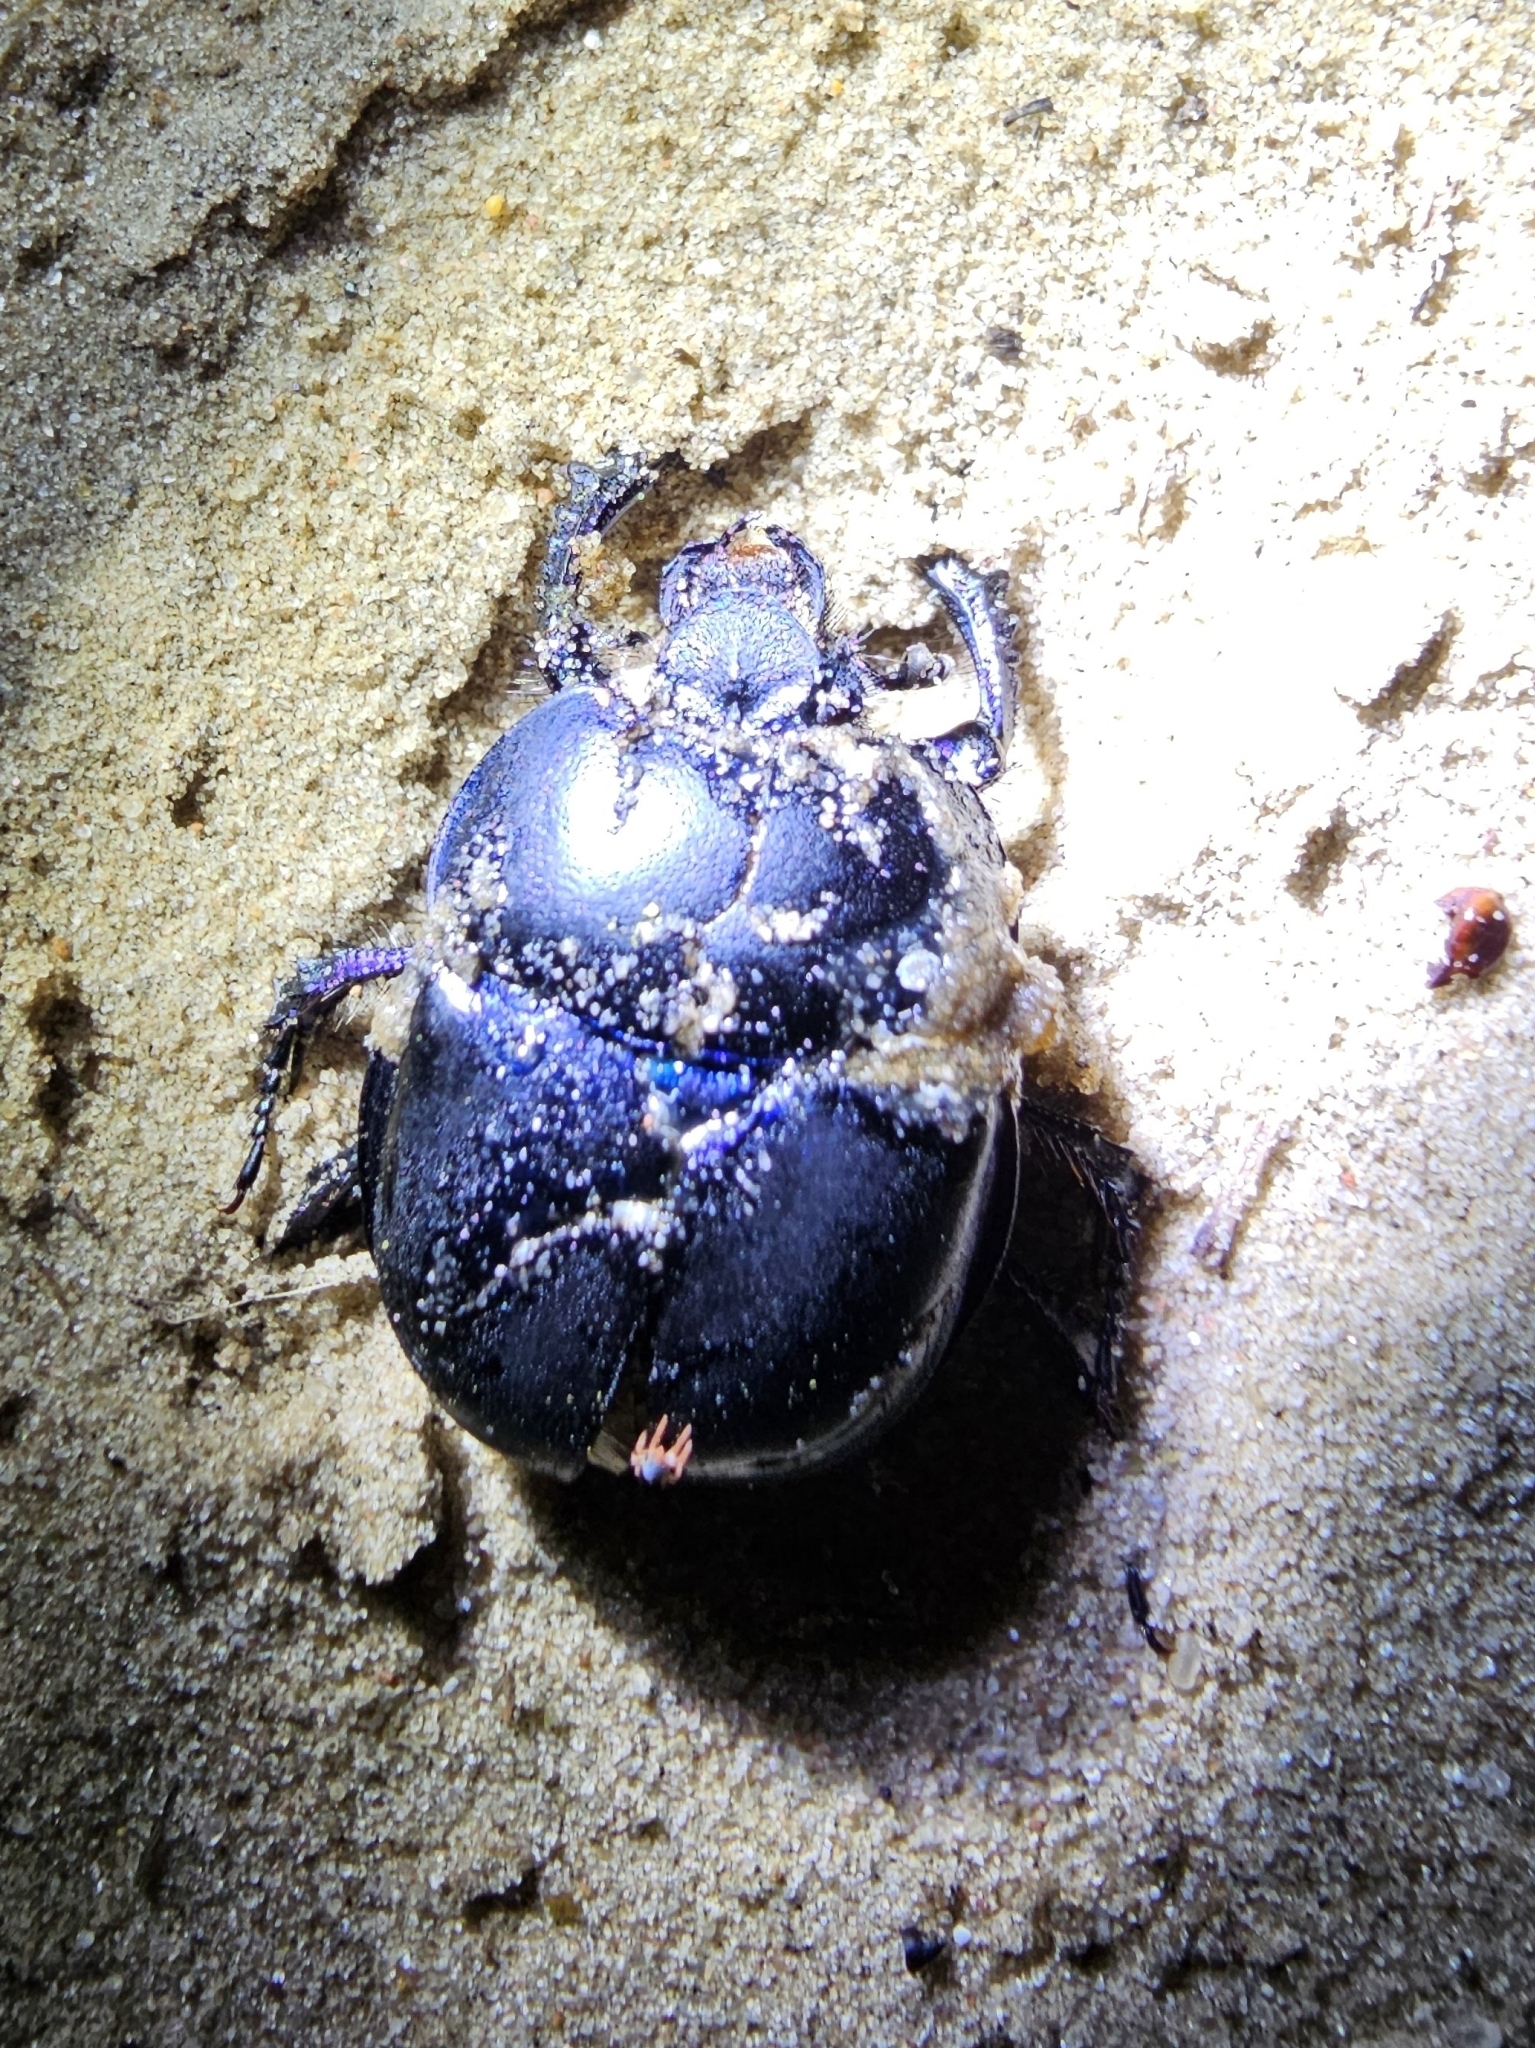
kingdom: Animalia
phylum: Arthropoda
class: Insecta
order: Coleoptera
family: Geotrupidae
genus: Trypocopris
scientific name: Trypocopris vernalis
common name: Spring dumbledor
